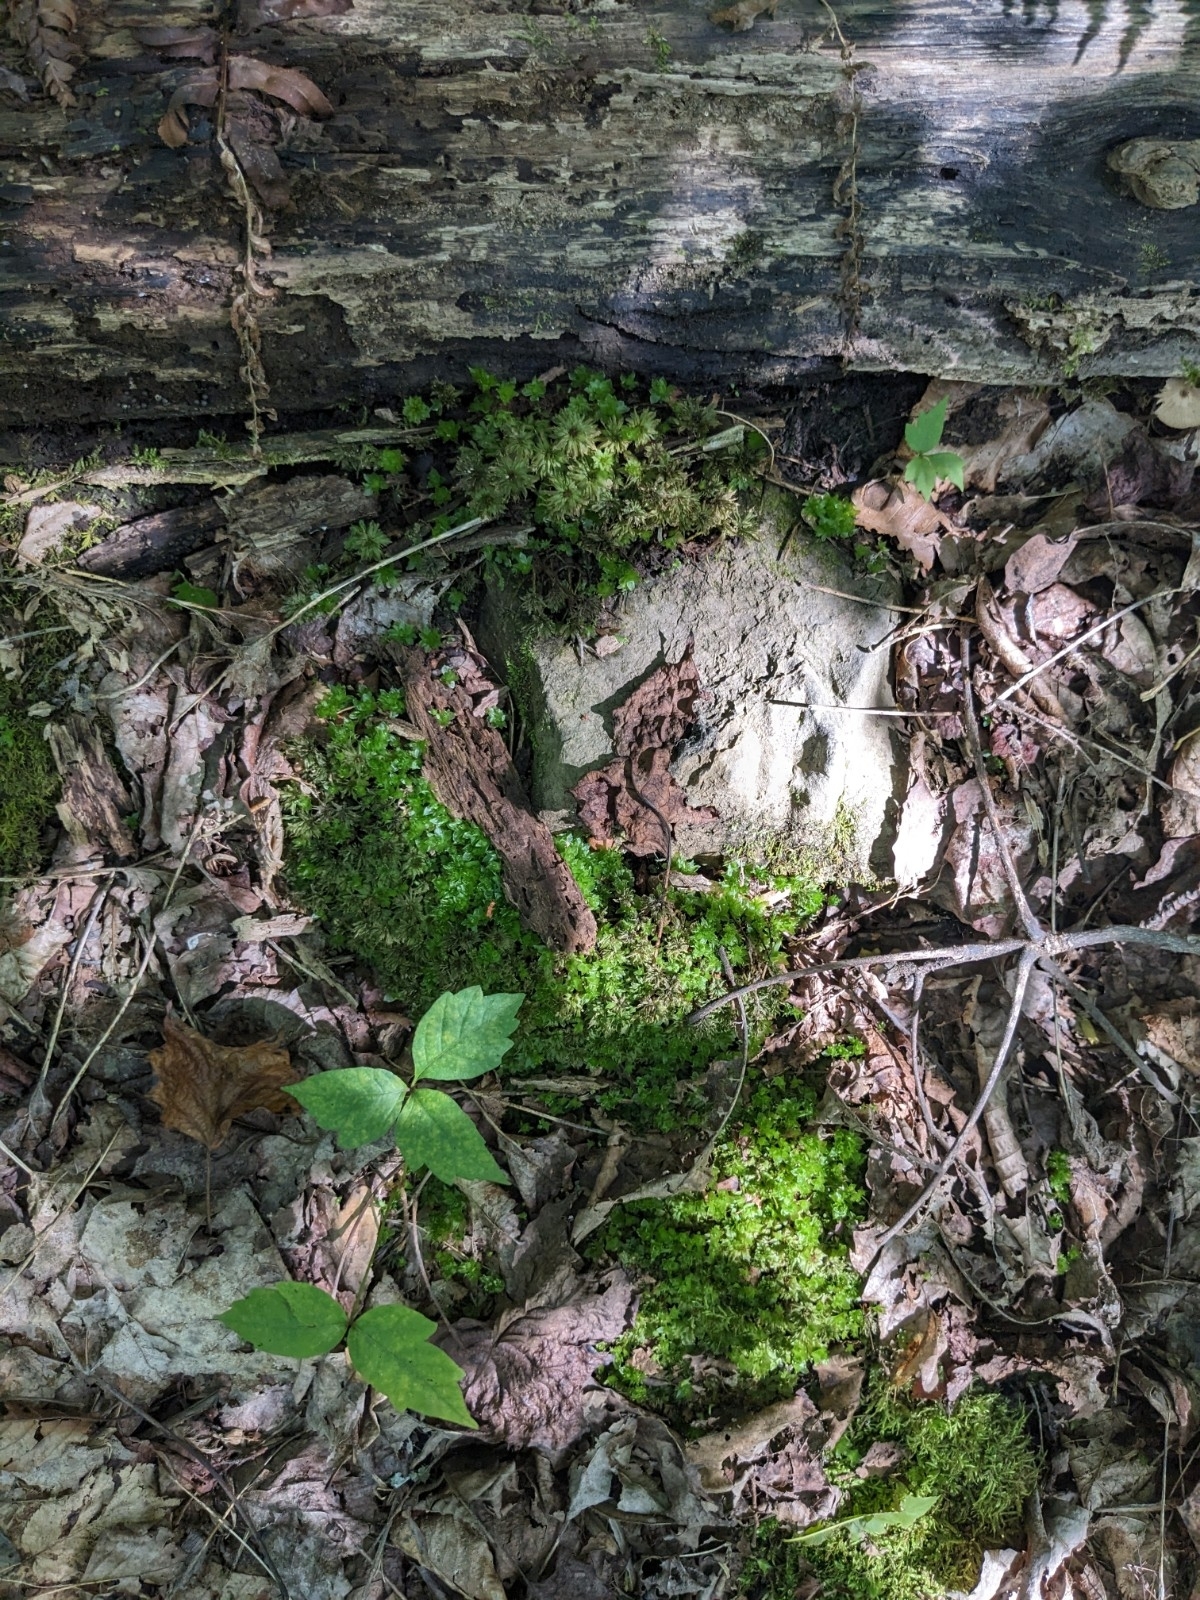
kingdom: Plantae
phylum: Bryophyta
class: Bryopsida
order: Bryales
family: Bryaceae
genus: Rhodobryum
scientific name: Rhodobryum ontariense
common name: Ontario rhodobryum moss
